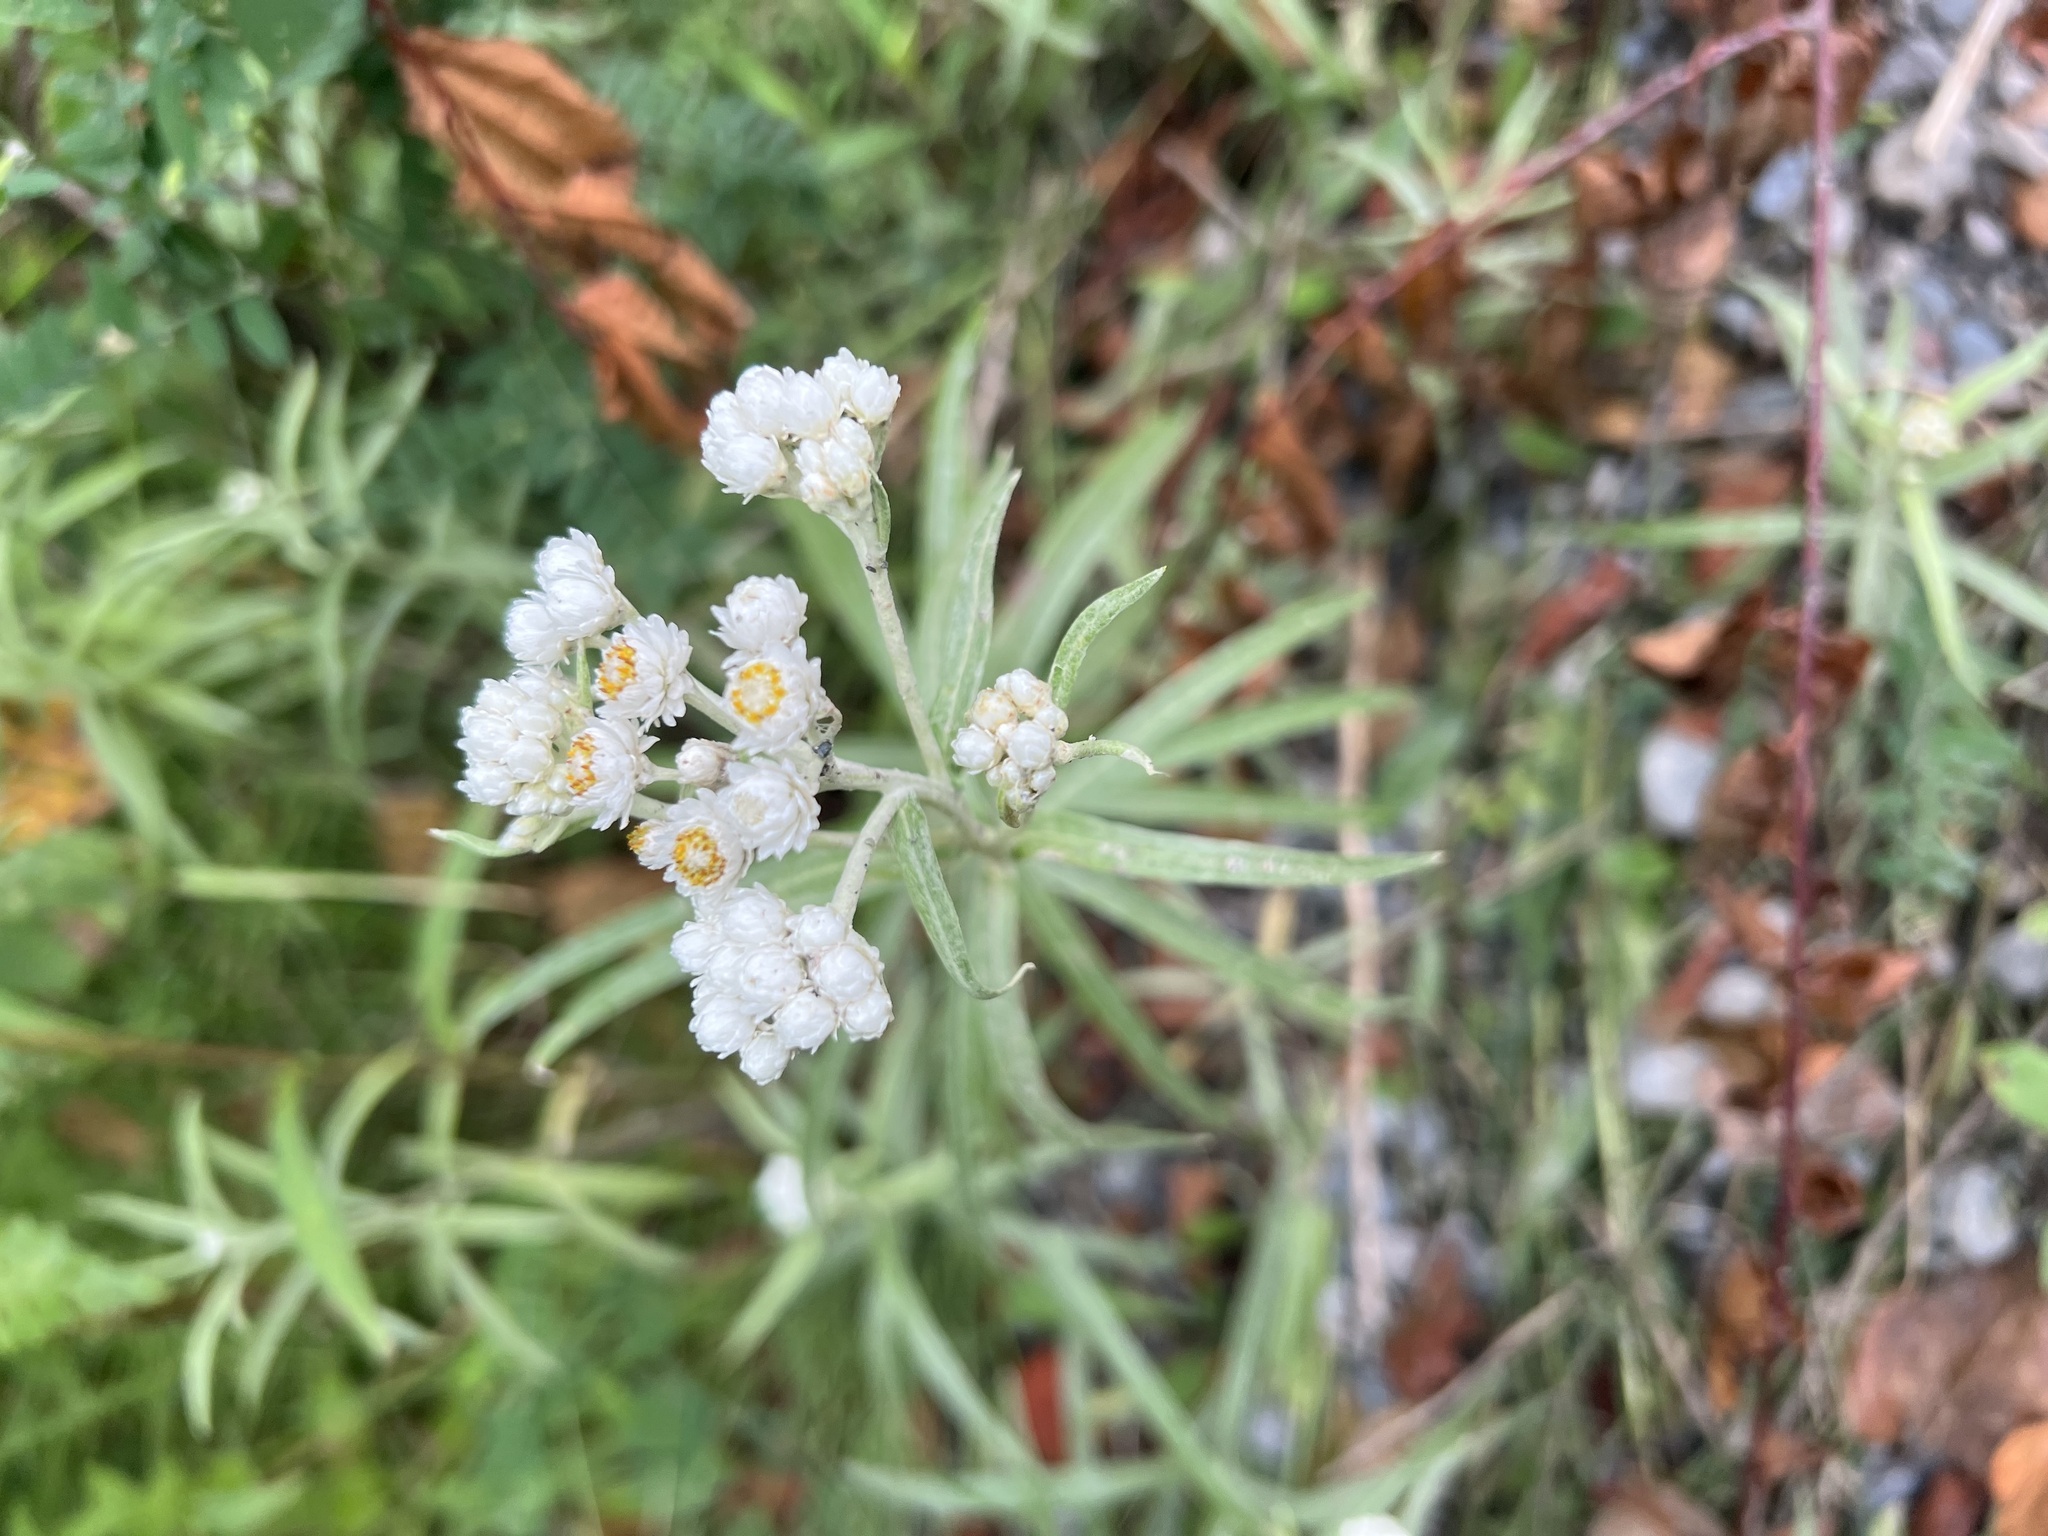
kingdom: Plantae
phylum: Tracheophyta
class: Magnoliopsida
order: Asterales
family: Asteraceae
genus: Anaphalis
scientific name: Anaphalis margaritacea
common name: Pearly everlasting
